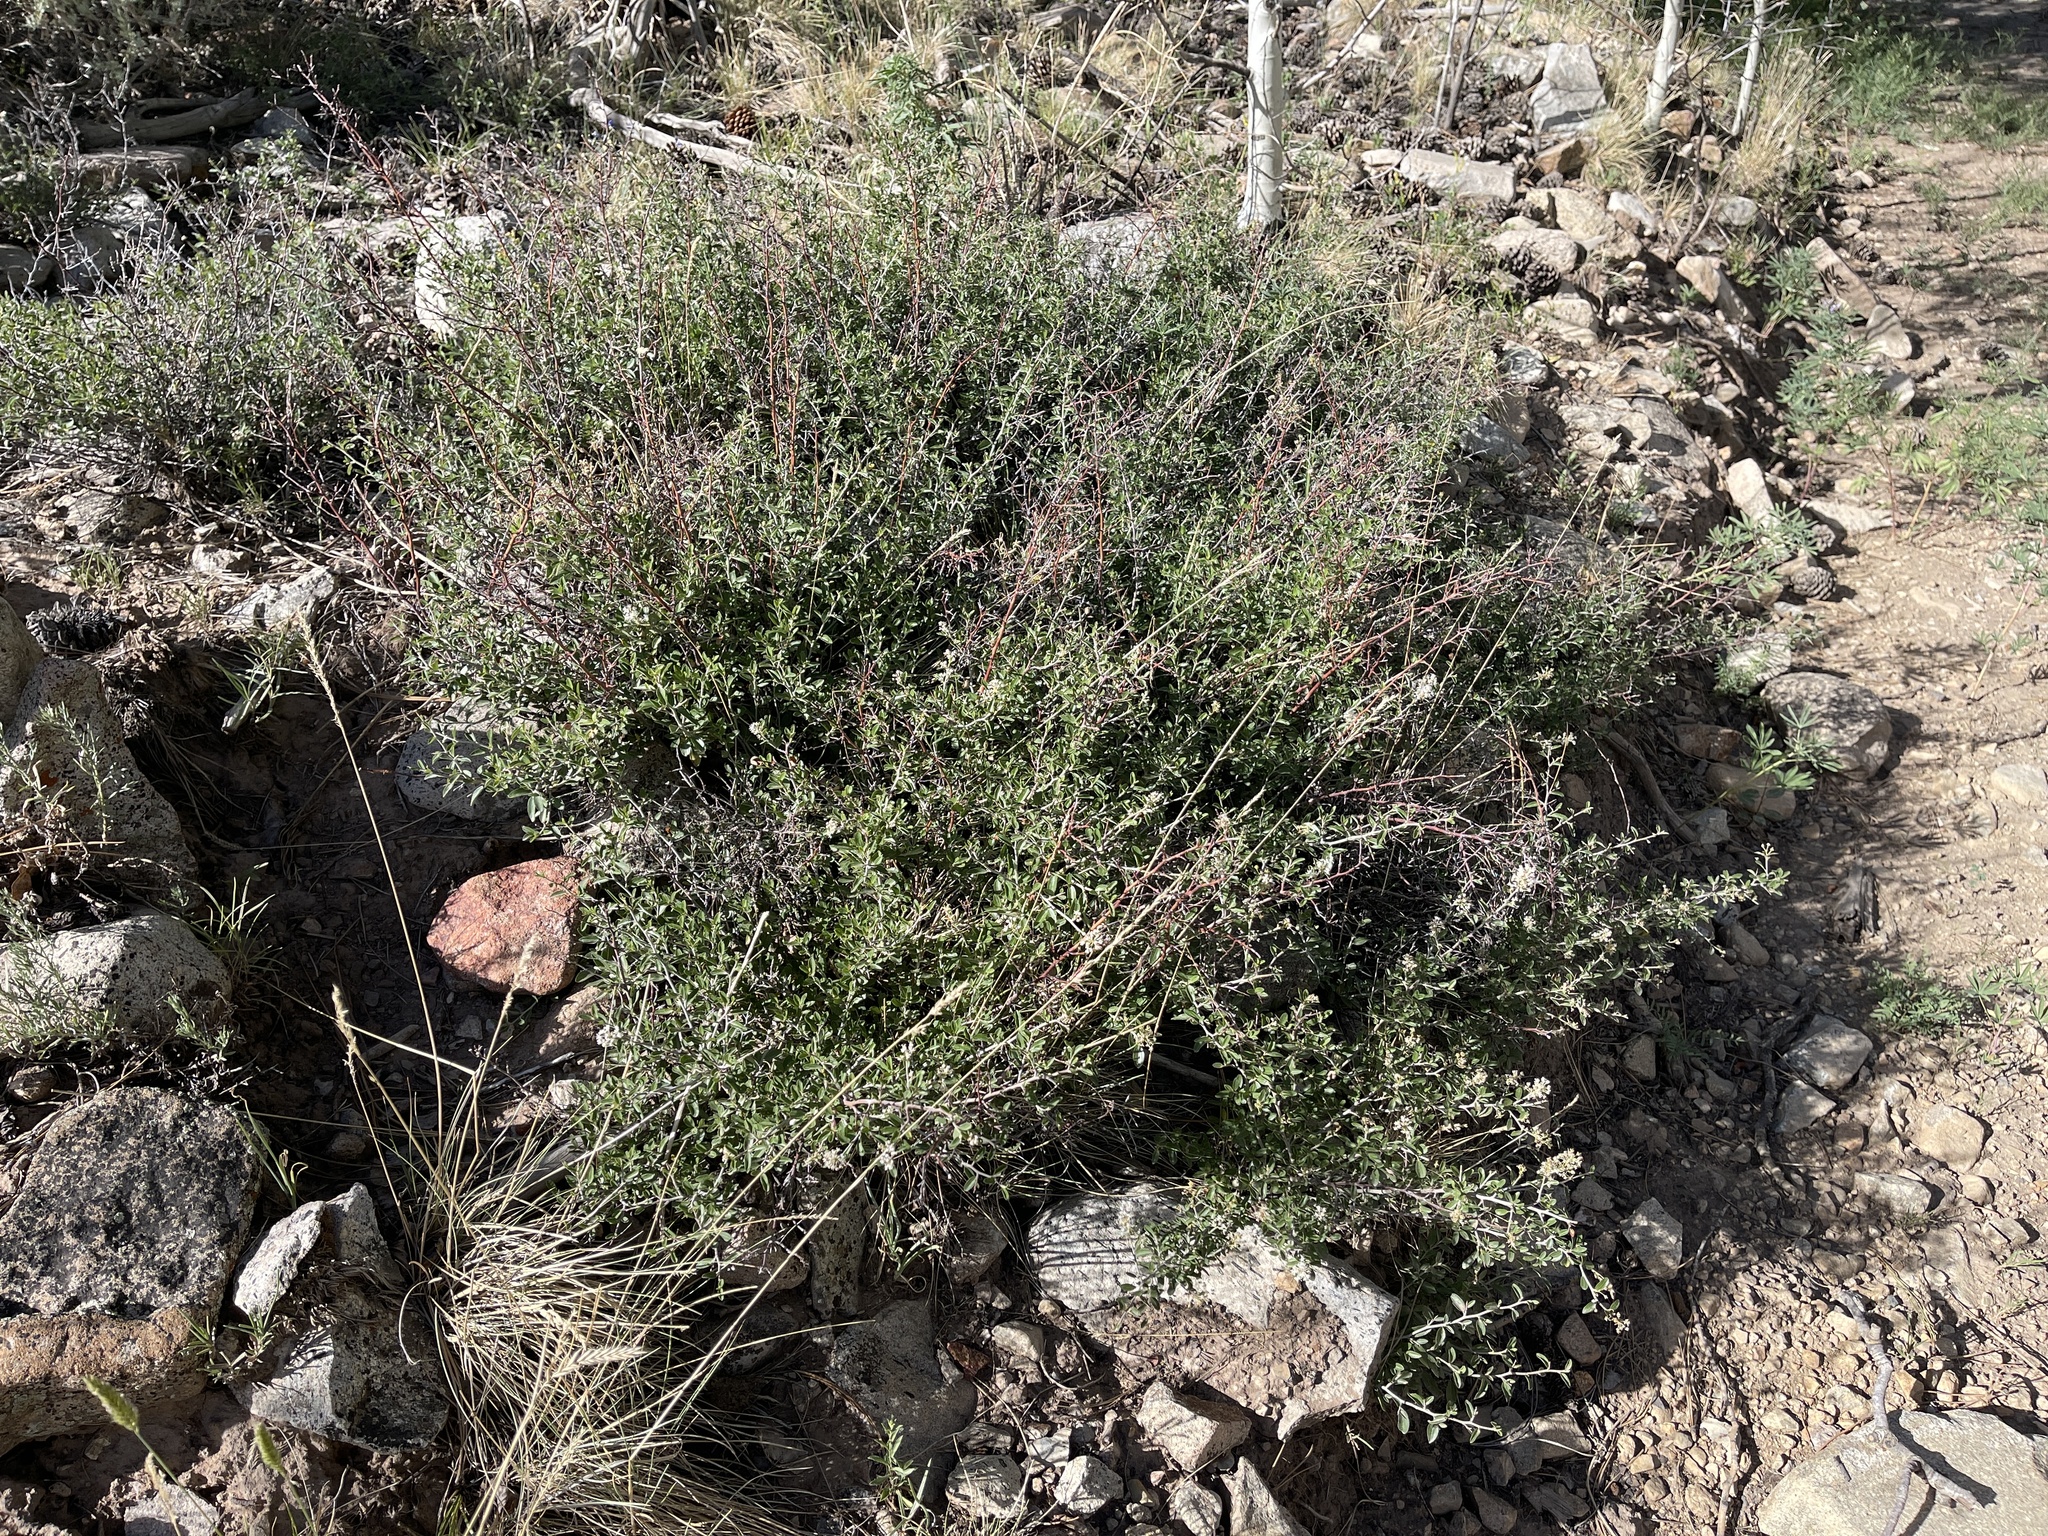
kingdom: Plantae
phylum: Tracheophyta
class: Magnoliopsida
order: Rosales
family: Rhamnaceae
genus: Ceanothus
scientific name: Ceanothus fendleri
